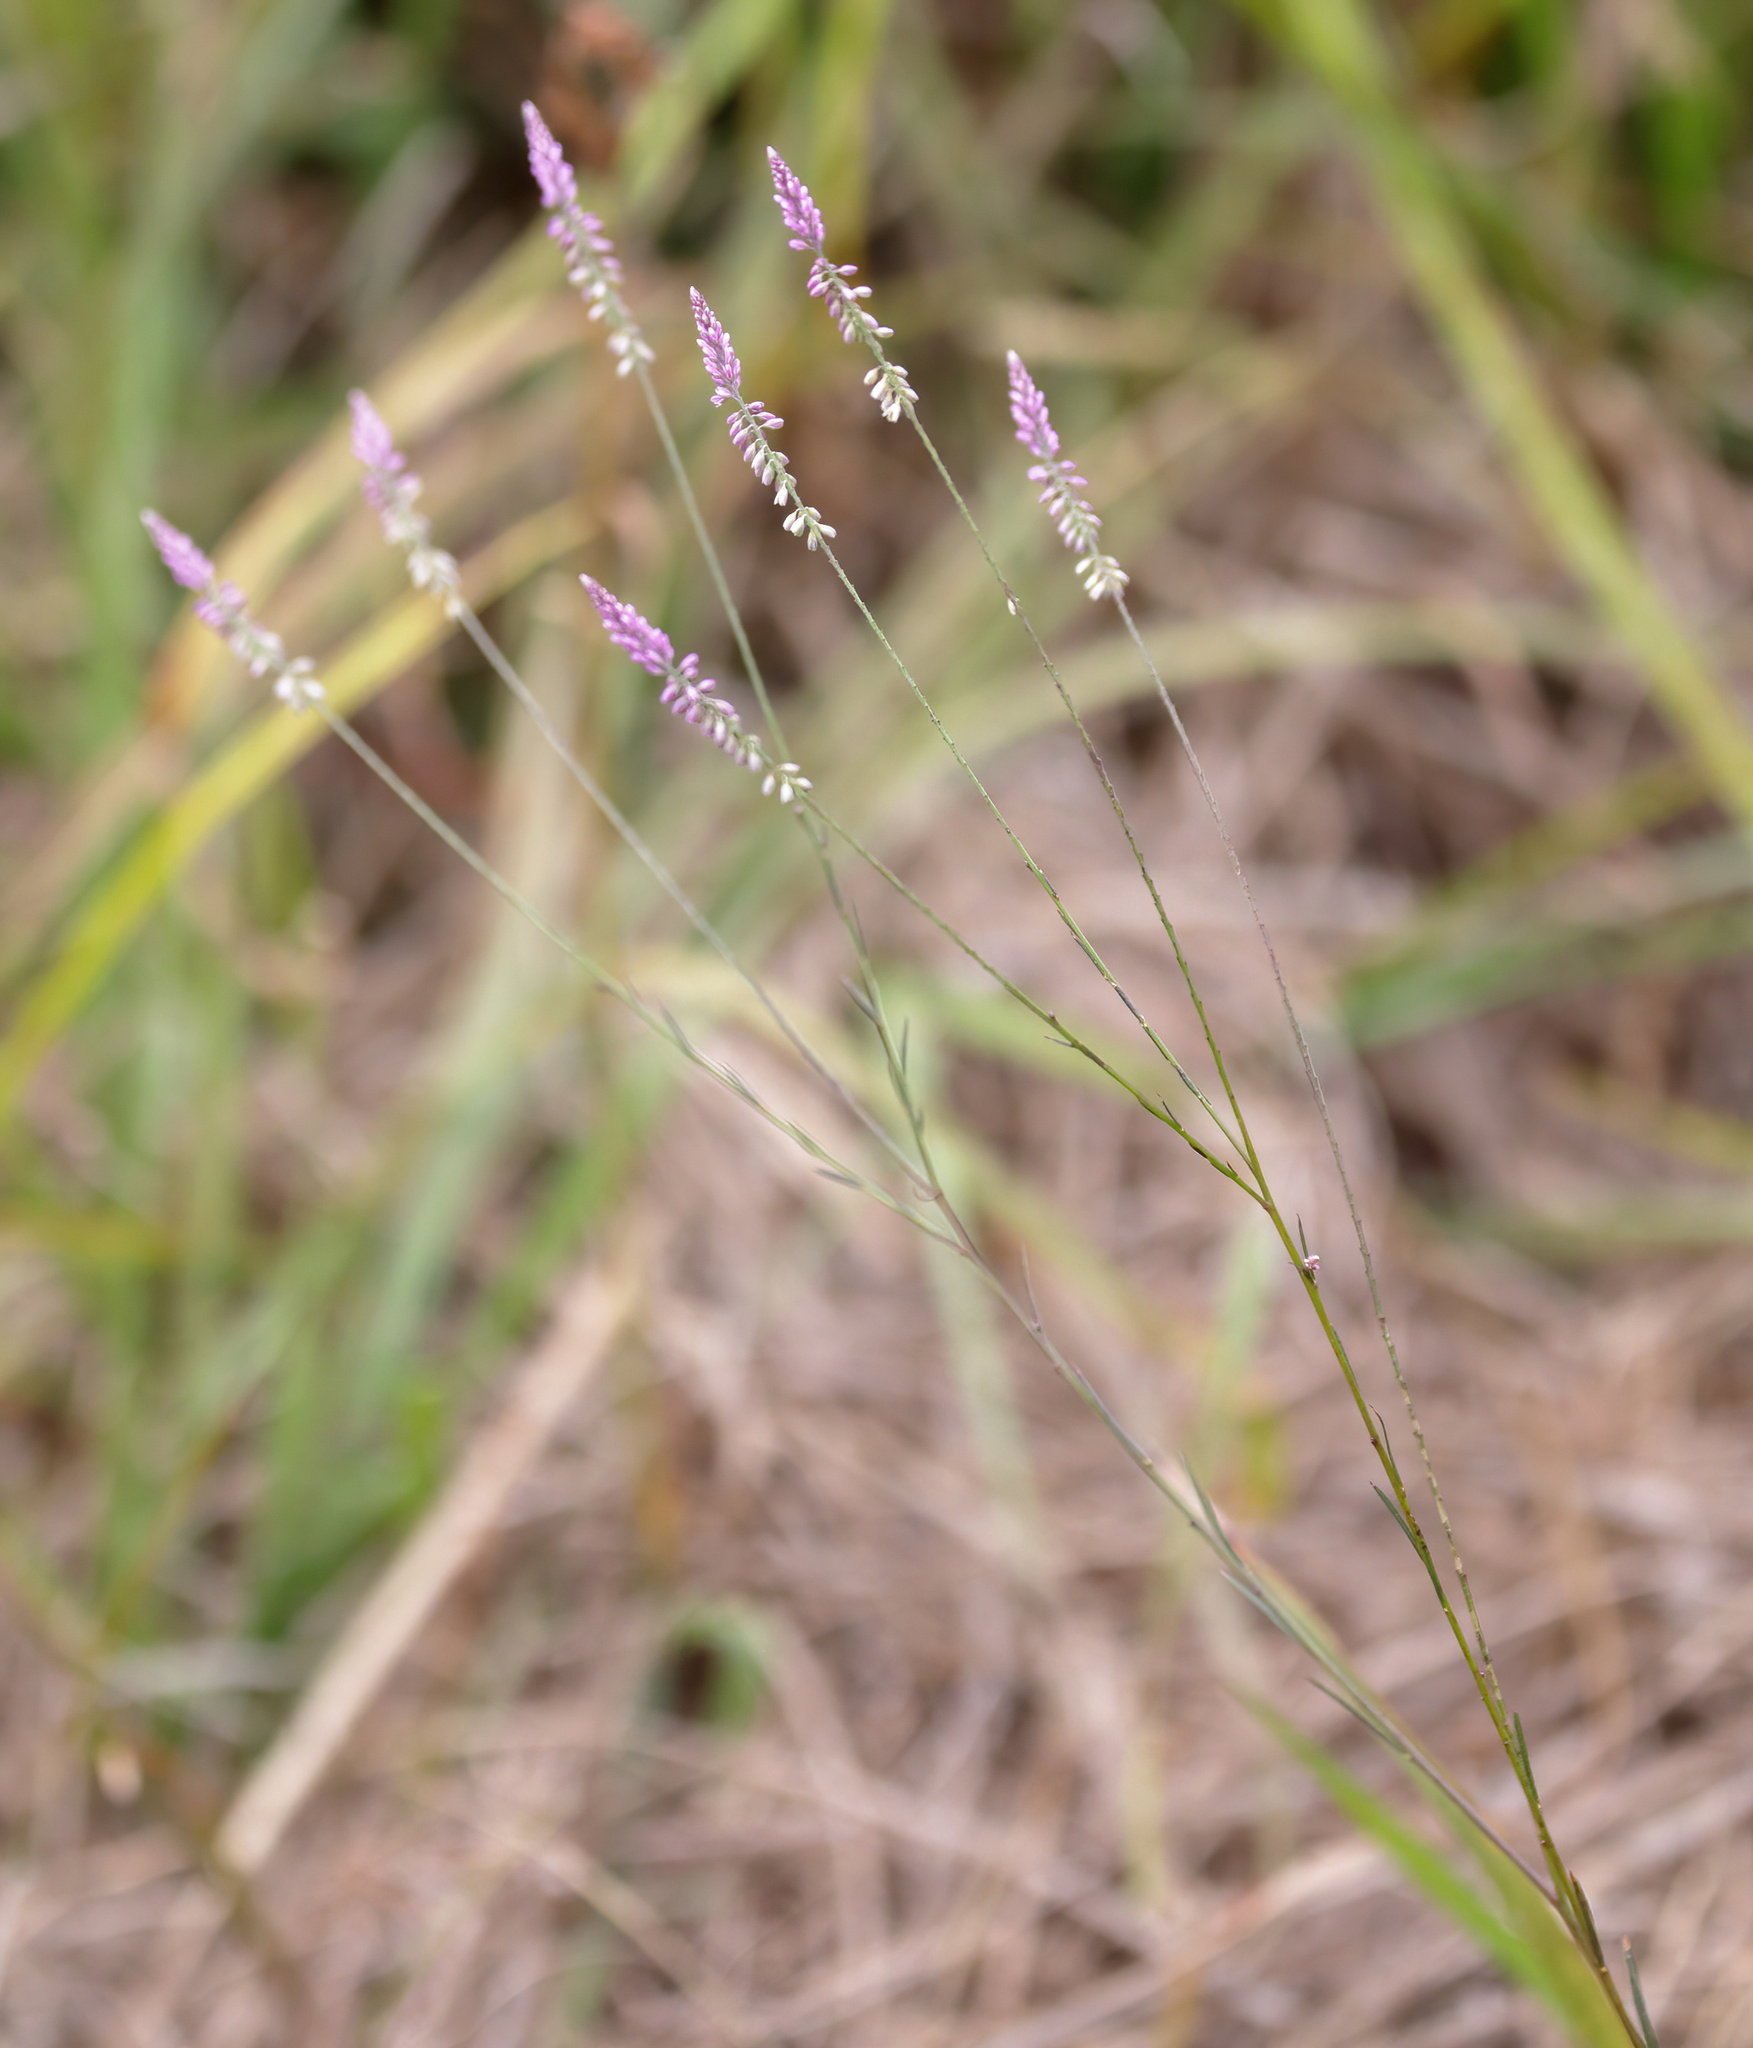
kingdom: Plantae
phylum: Tracheophyta
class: Magnoliopsida
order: Fabales
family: Polygalaceae
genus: Polygala
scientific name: Polygala tenella
